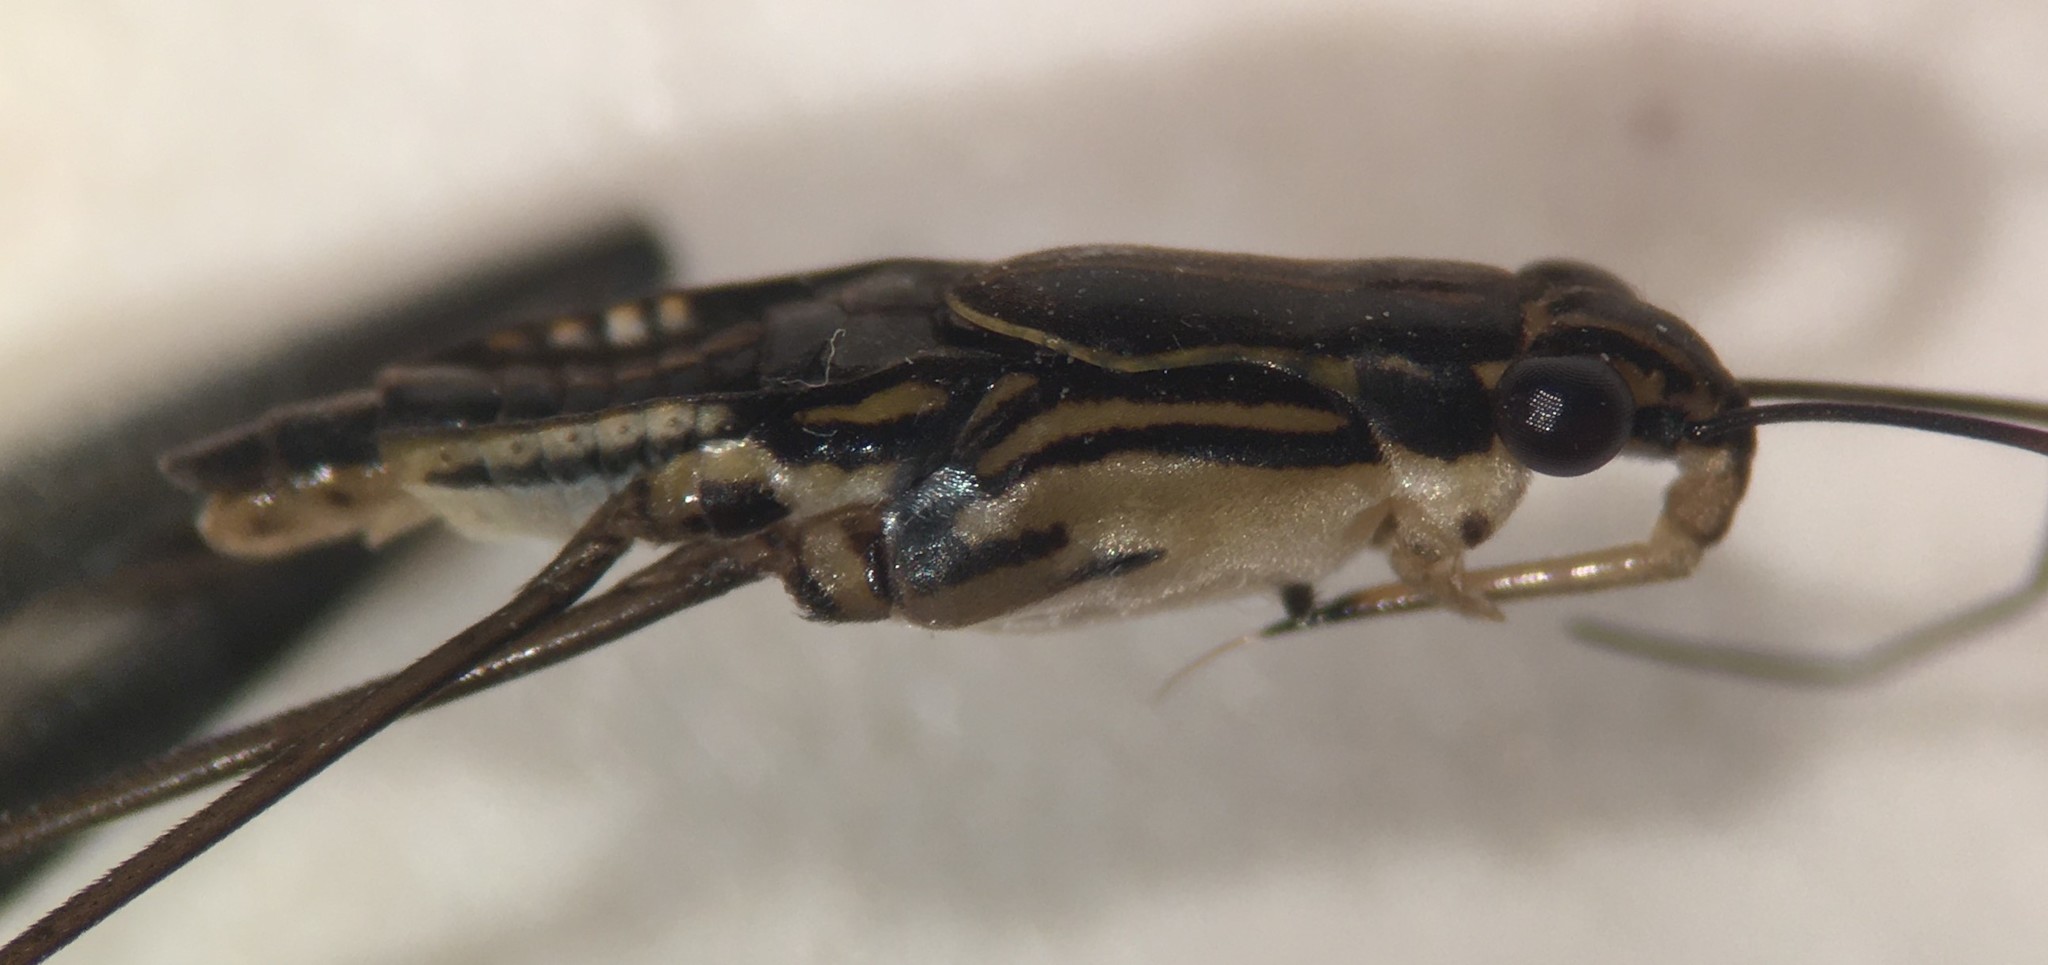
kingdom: Animalia
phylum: Arthropoda
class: Insecta
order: Hemiptera
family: Gerridae
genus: Limnogonus
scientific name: Limnogonus recens
